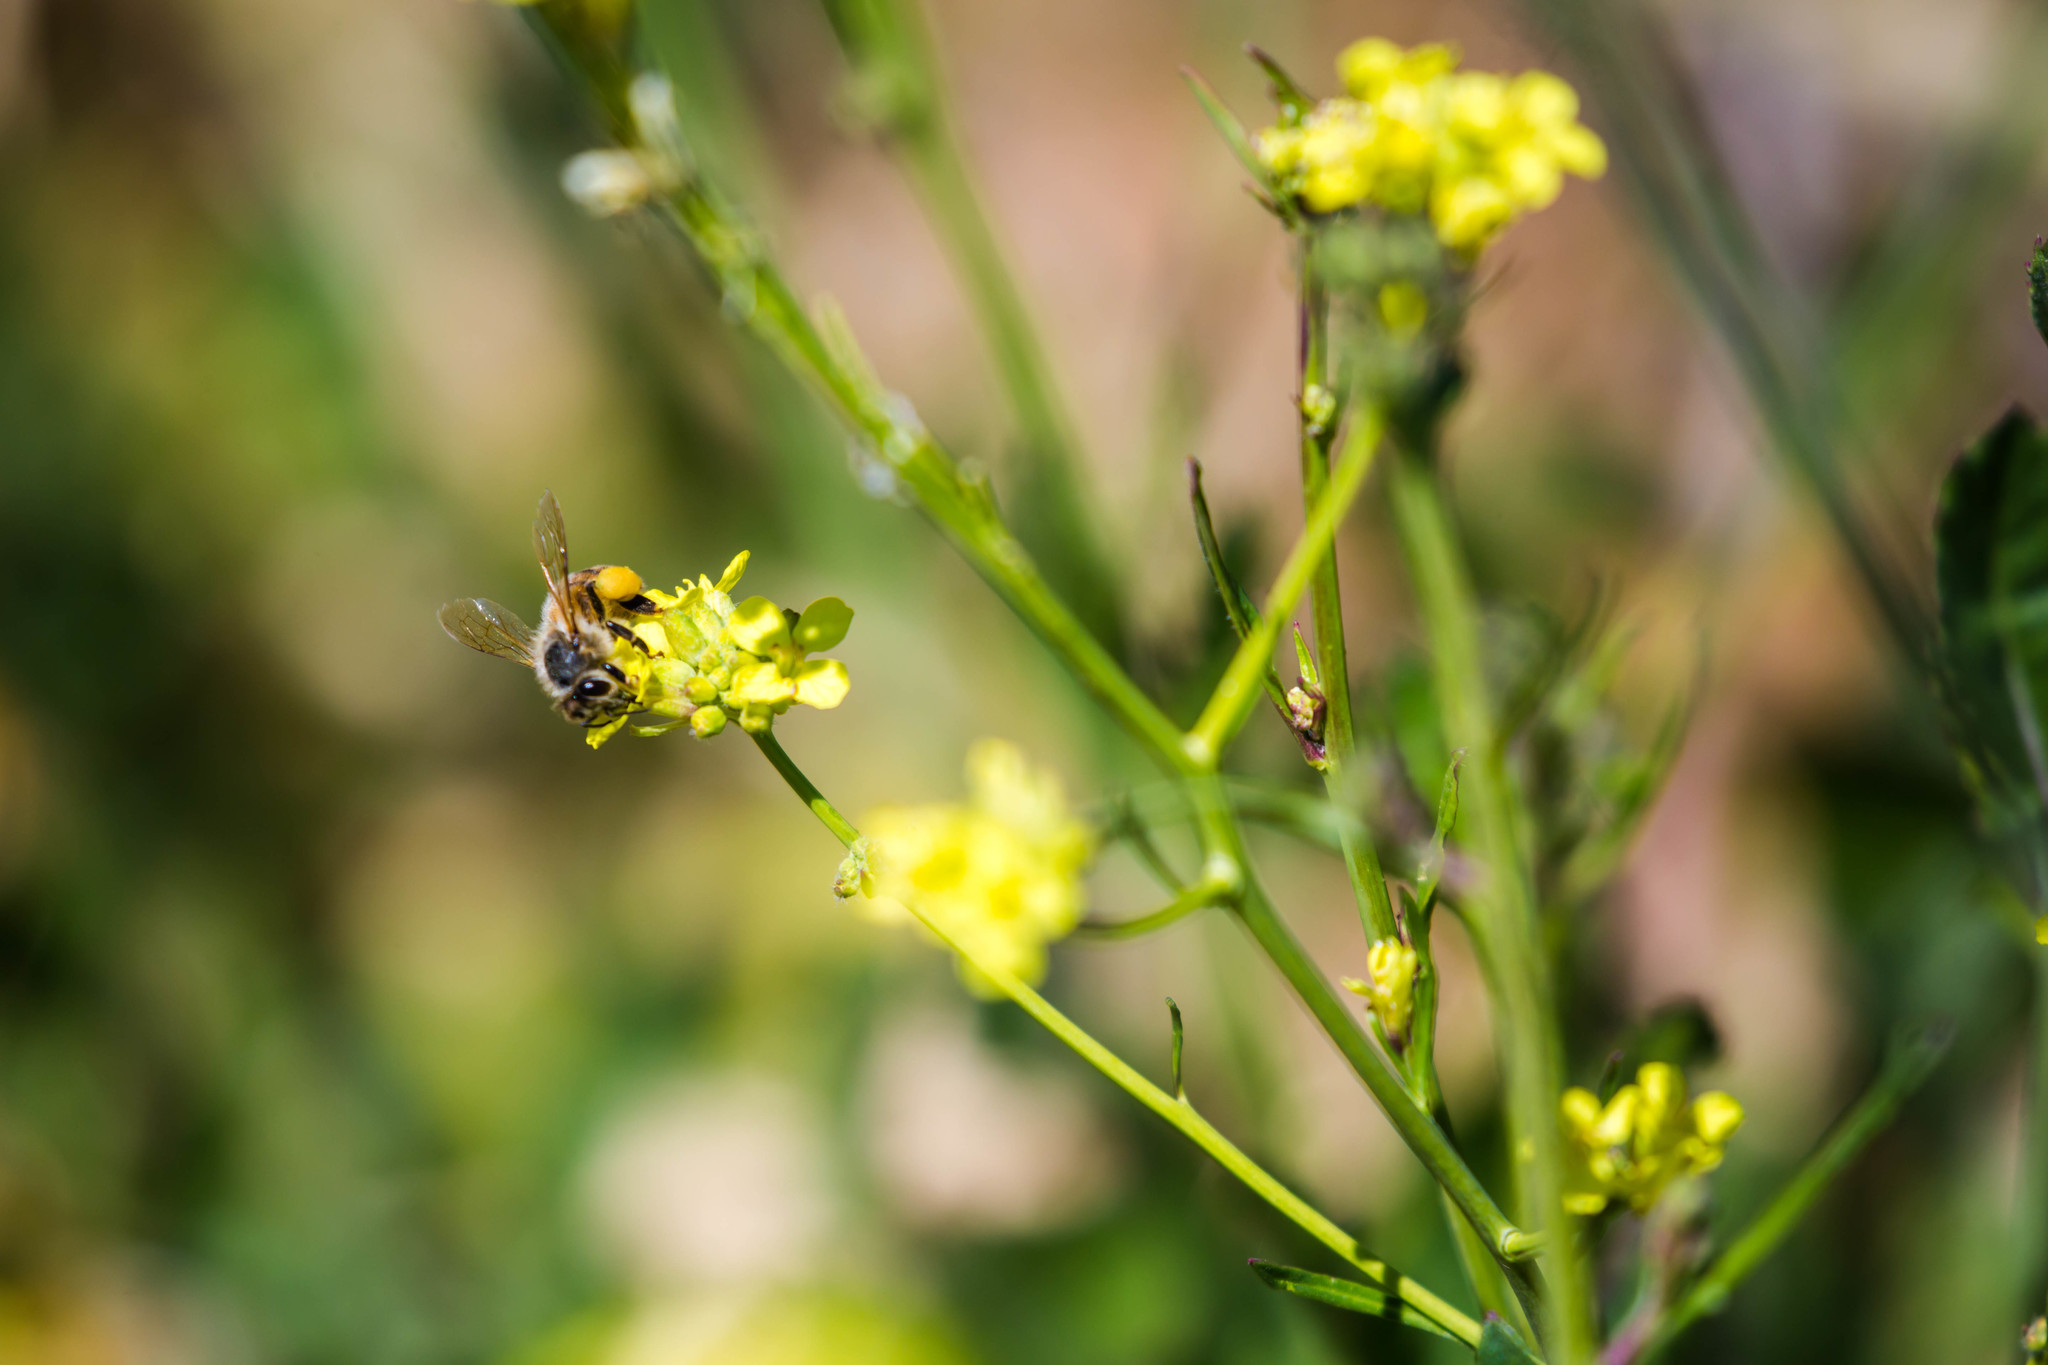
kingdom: Animalia
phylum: Arthropoda
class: Insecta
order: Hymenoptera
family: Apidae
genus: Apis
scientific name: Apis mellifera
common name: Honey bee
